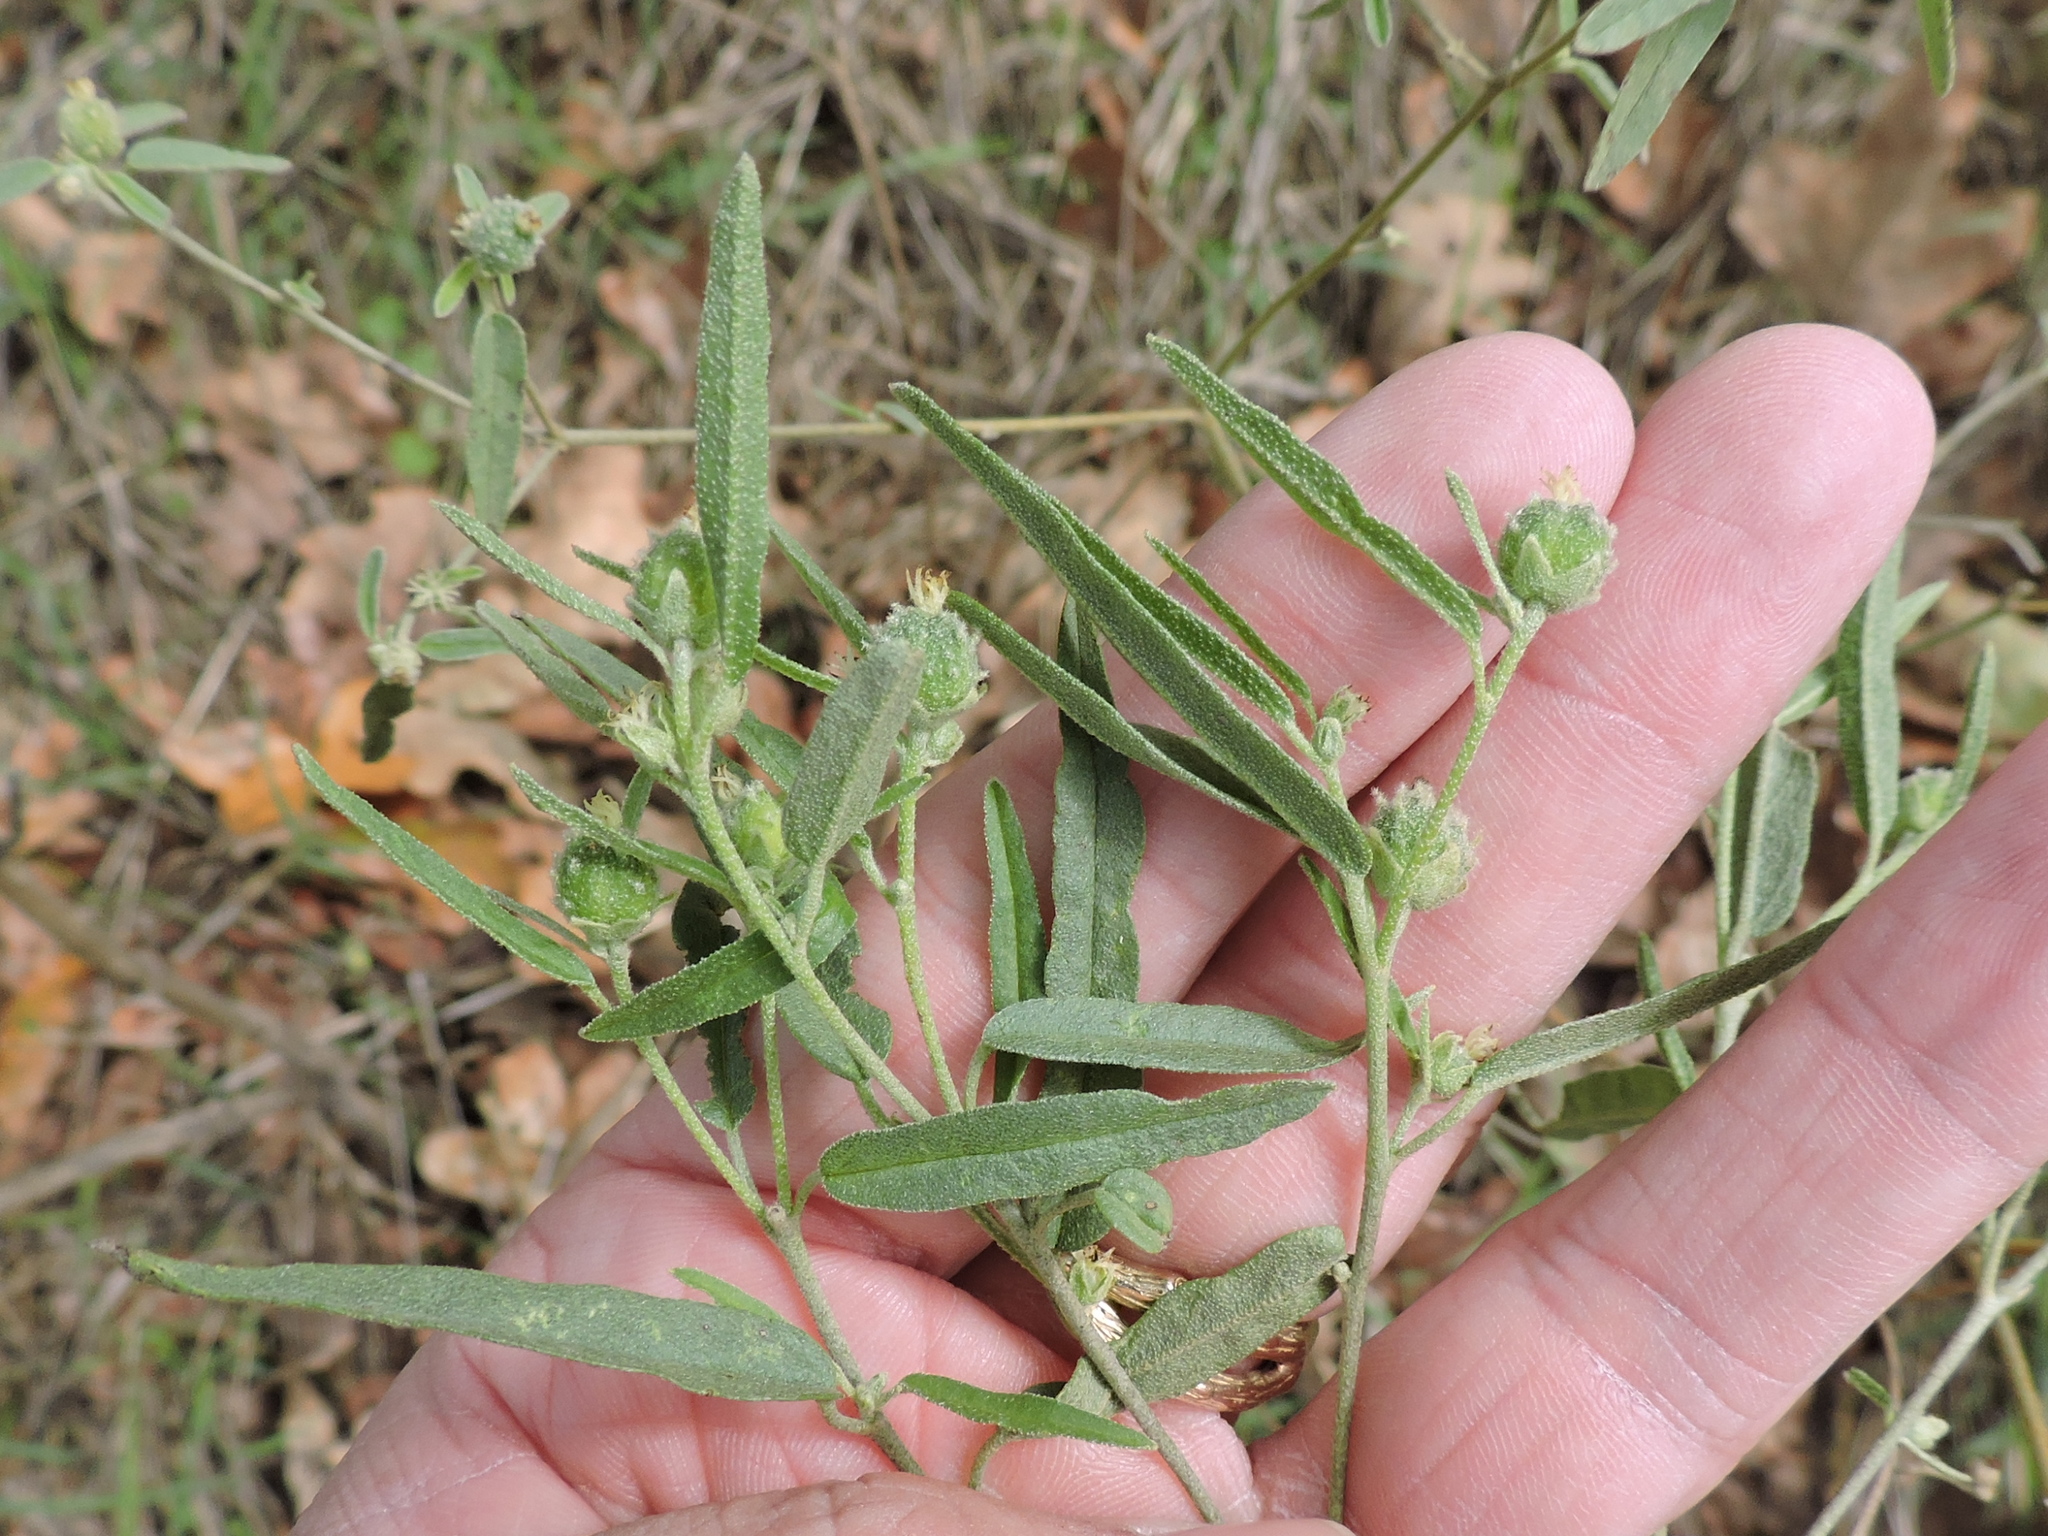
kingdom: Plantae
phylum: Tracheophyta
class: Magnoliopsida
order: Malpighiales
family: Euphorbiaceae
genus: Croton
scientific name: Croton texensis
